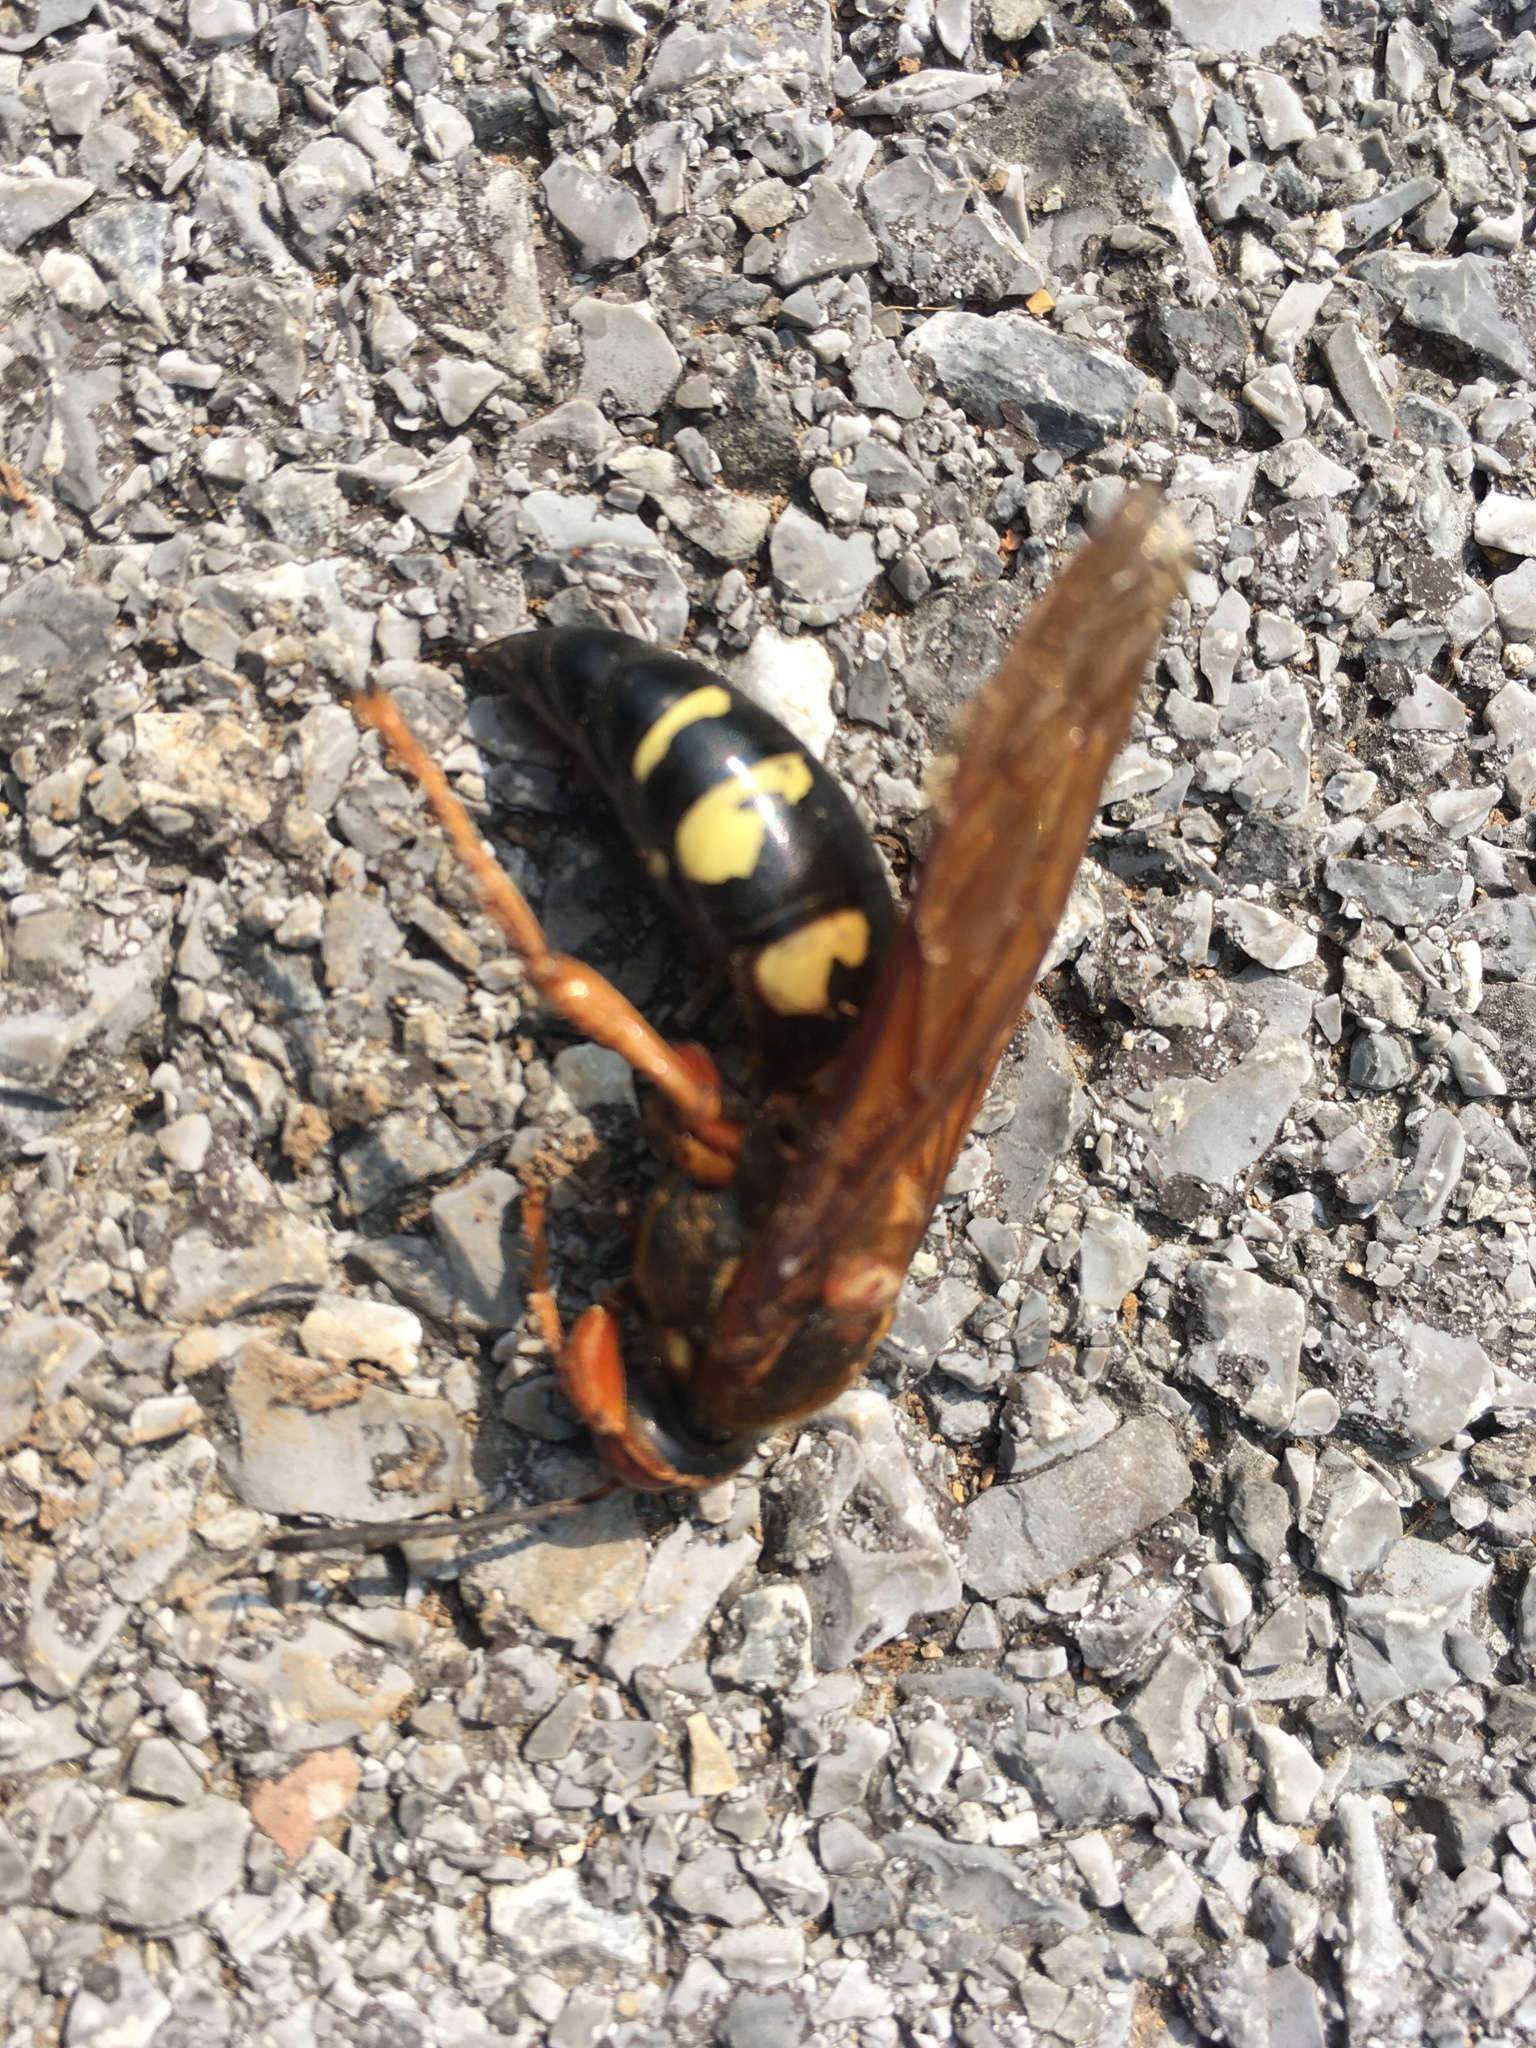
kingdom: Animalia
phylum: Arthropoda
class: Insecta
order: Hymenoptera
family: Crabronidae
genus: Sphecius
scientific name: Sphecius speciosus
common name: Cicada killer
